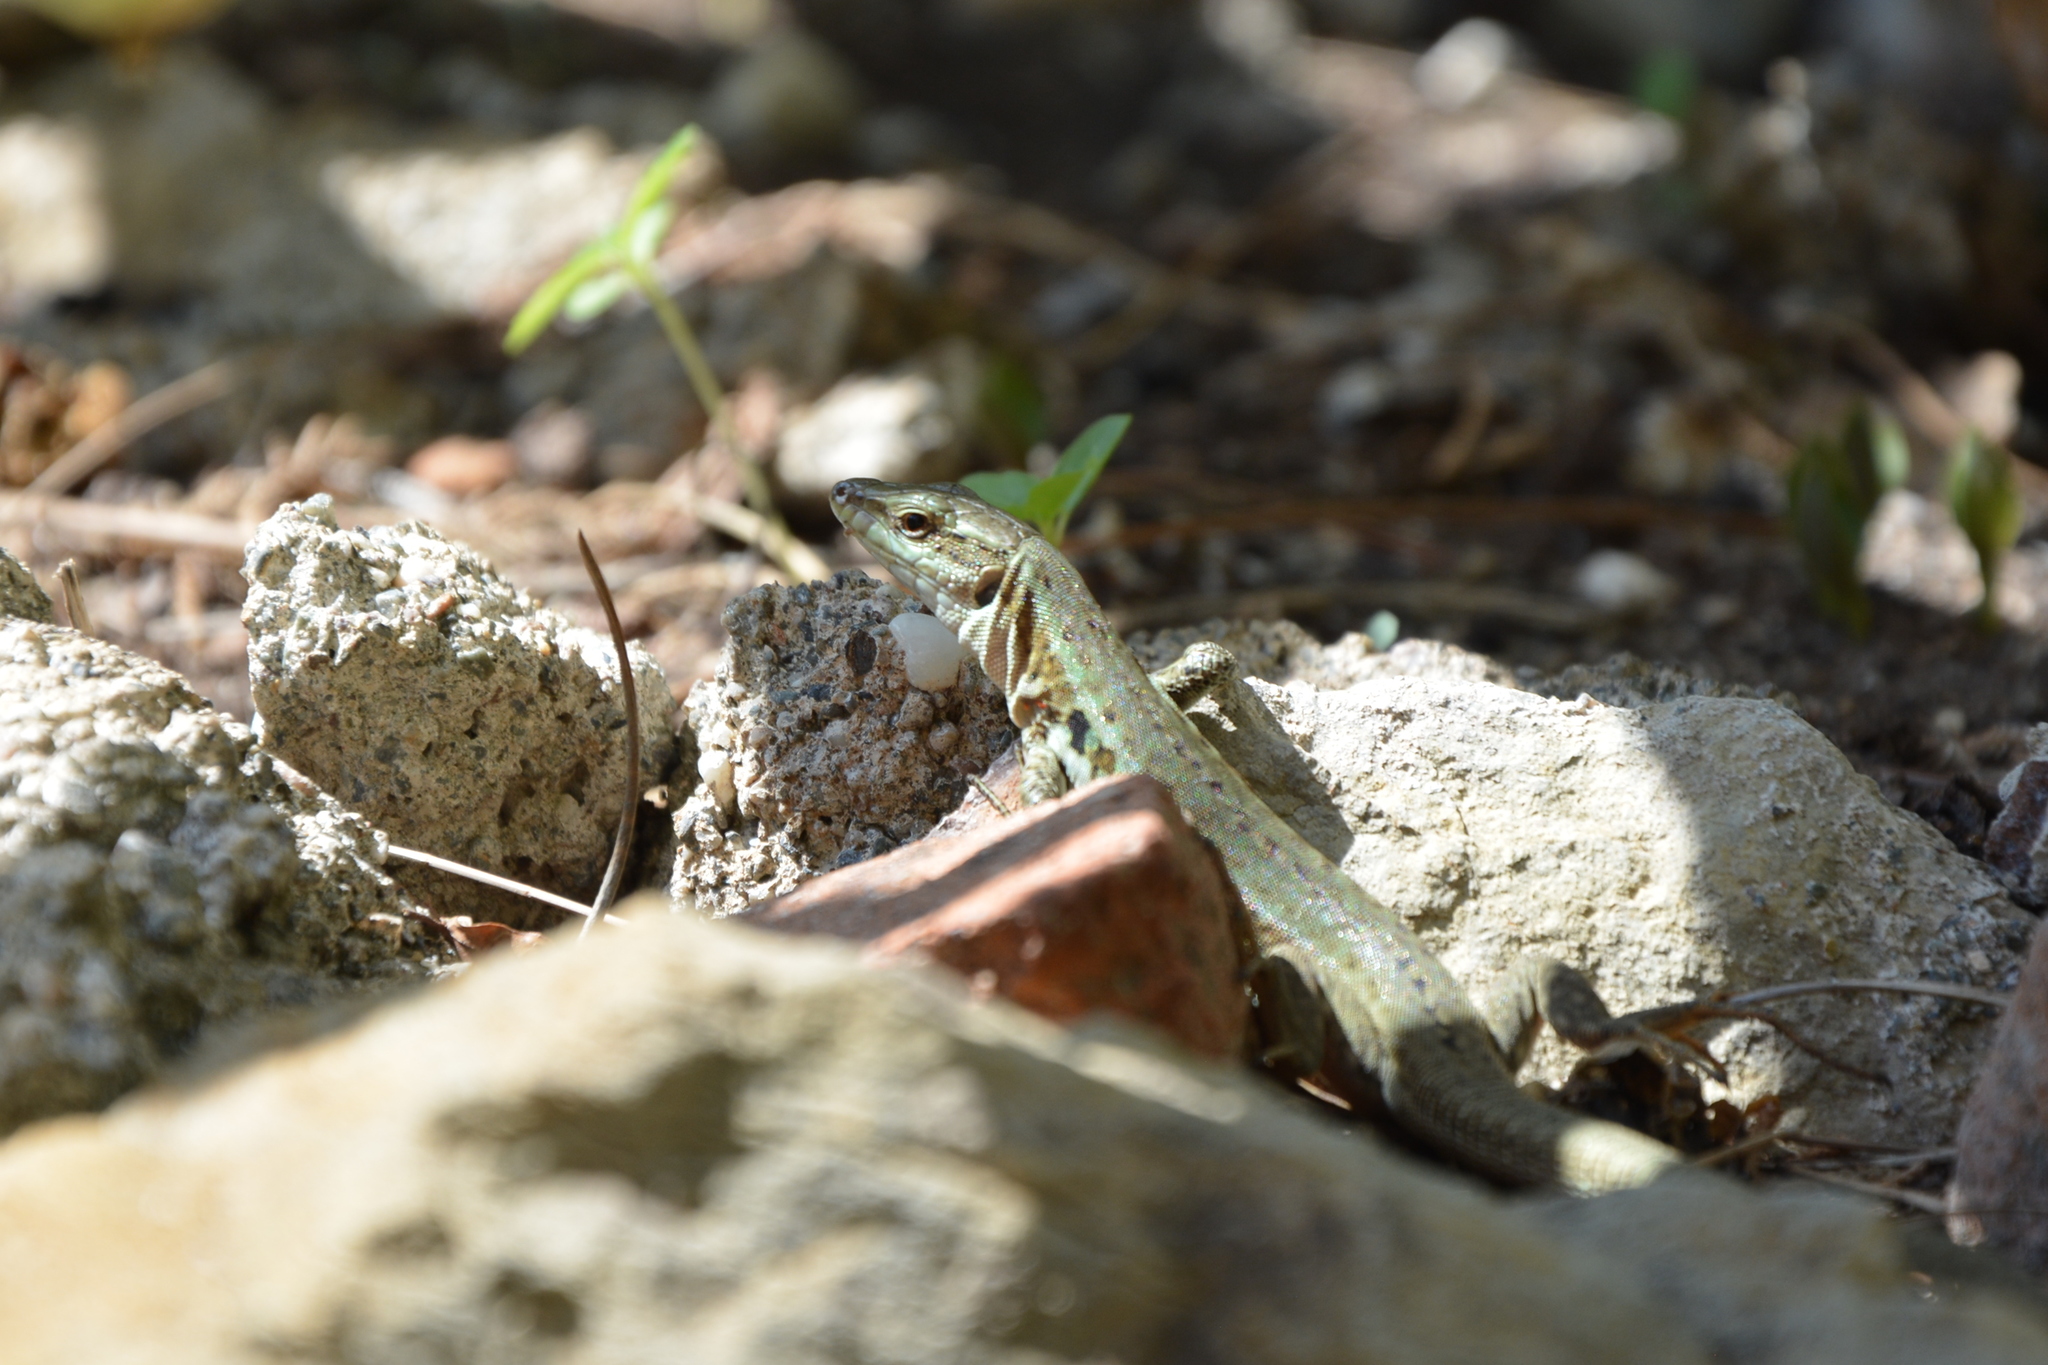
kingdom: Animalia
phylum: Chordata
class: Squamata
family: Lacertidae
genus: Podarcis
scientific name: Podarcis siculus
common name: Italian wall lizard
